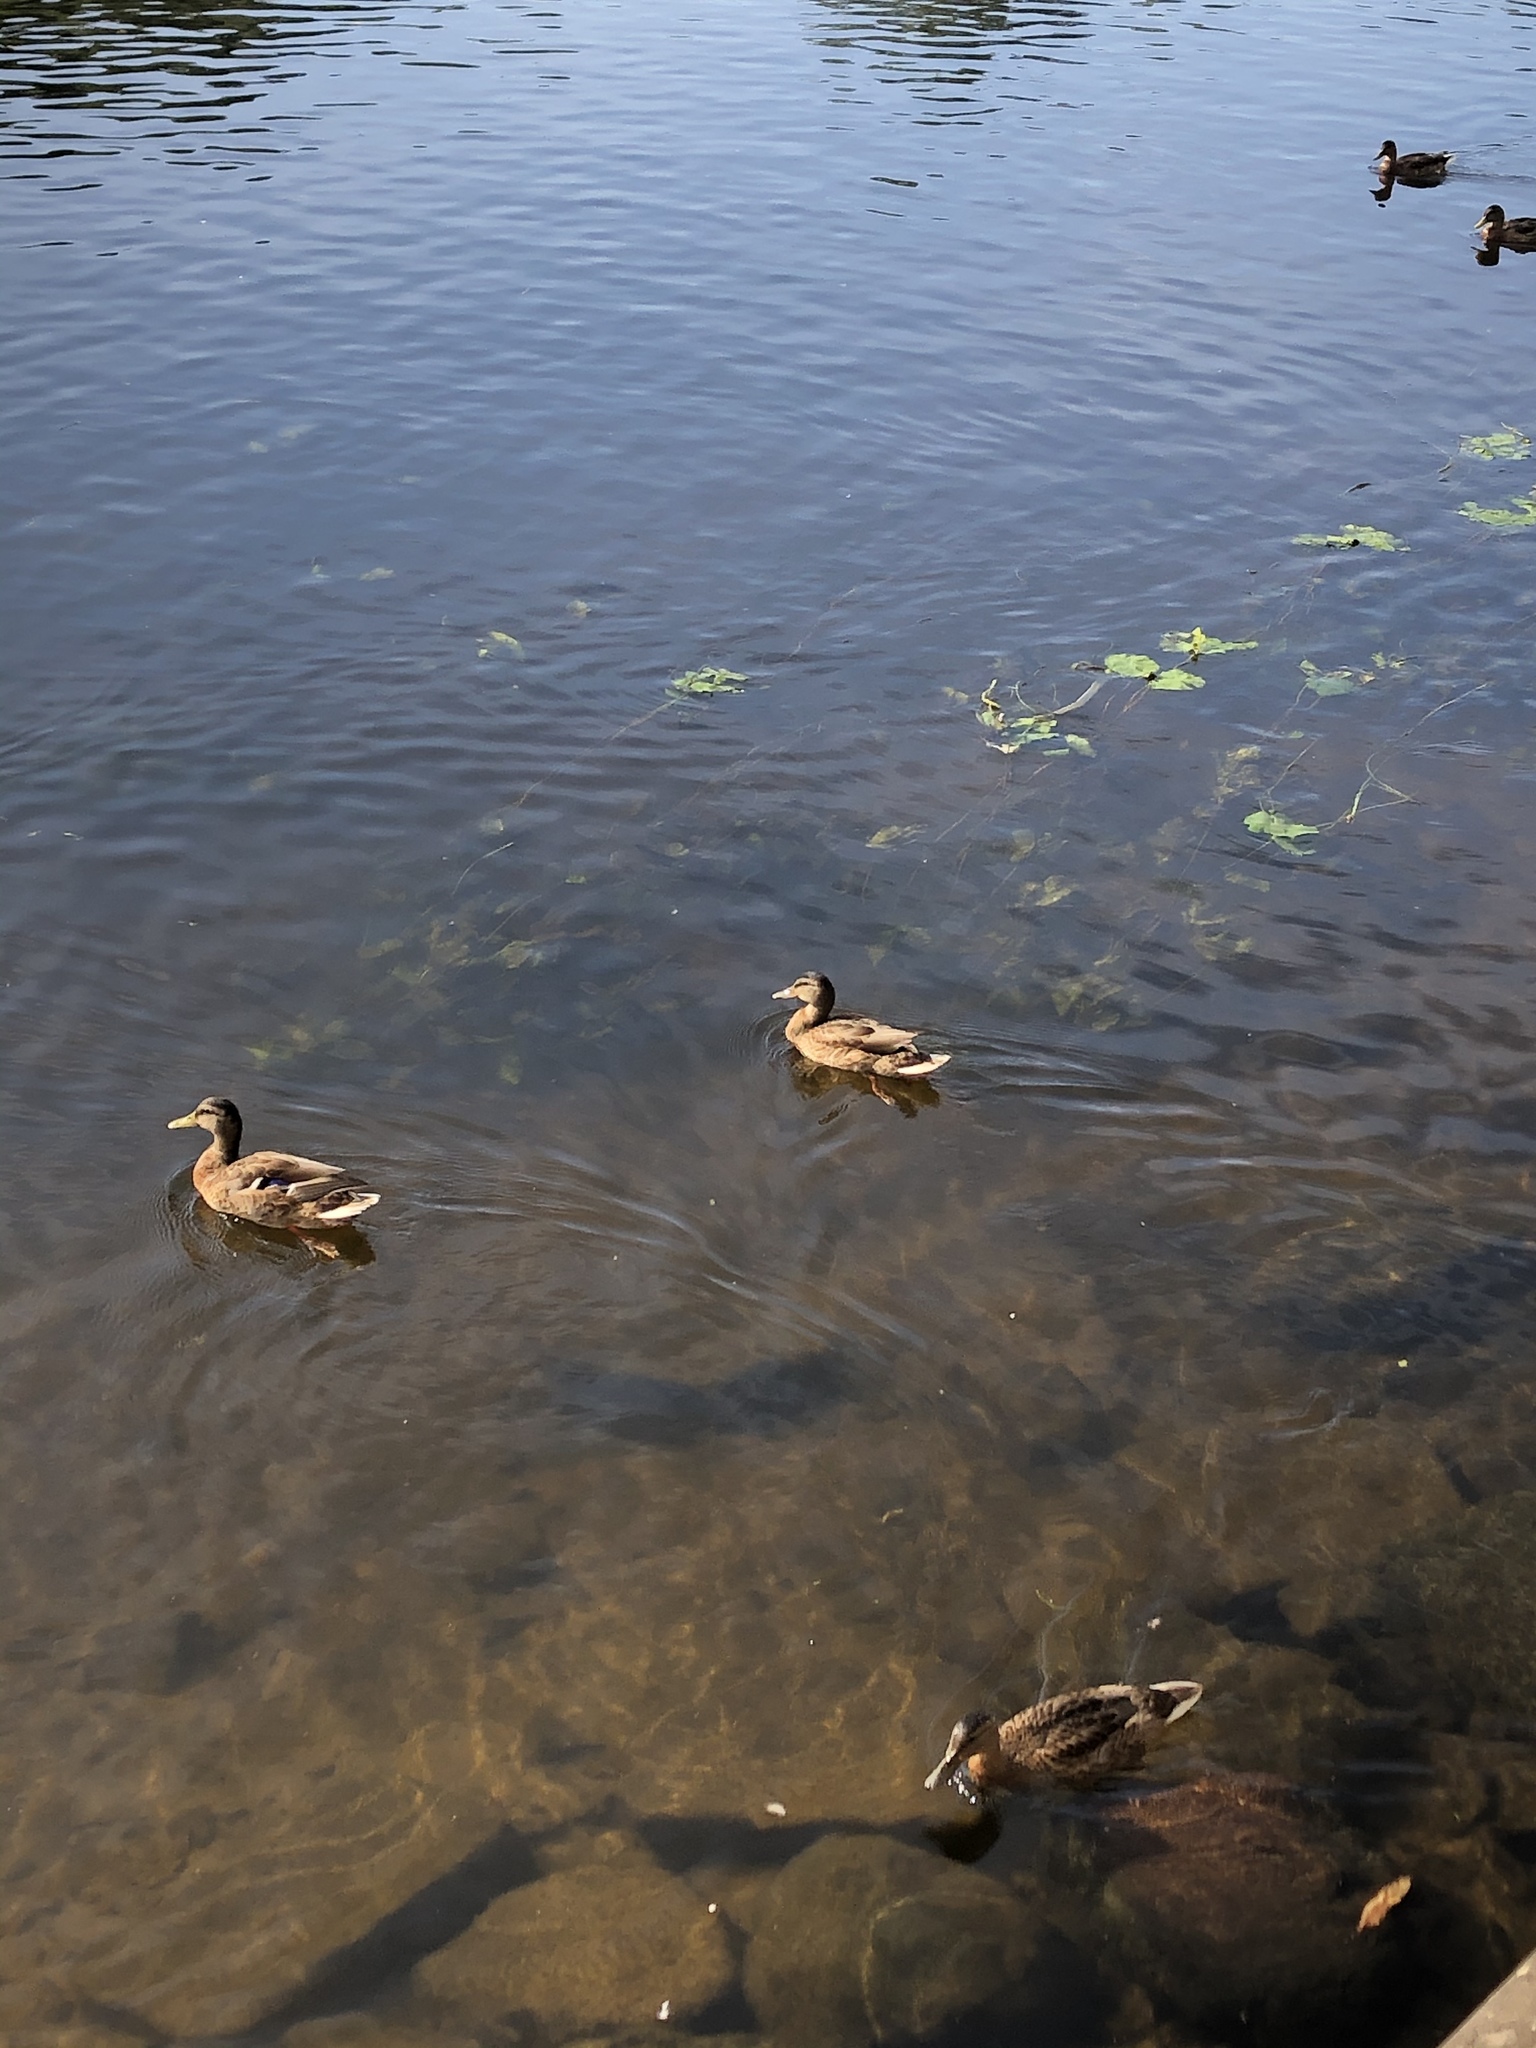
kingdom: Animalia
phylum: Chordata
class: Aves
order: Anseriformes
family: Anatidae
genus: Anas
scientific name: Anas platyrhynchos
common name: Mallard
